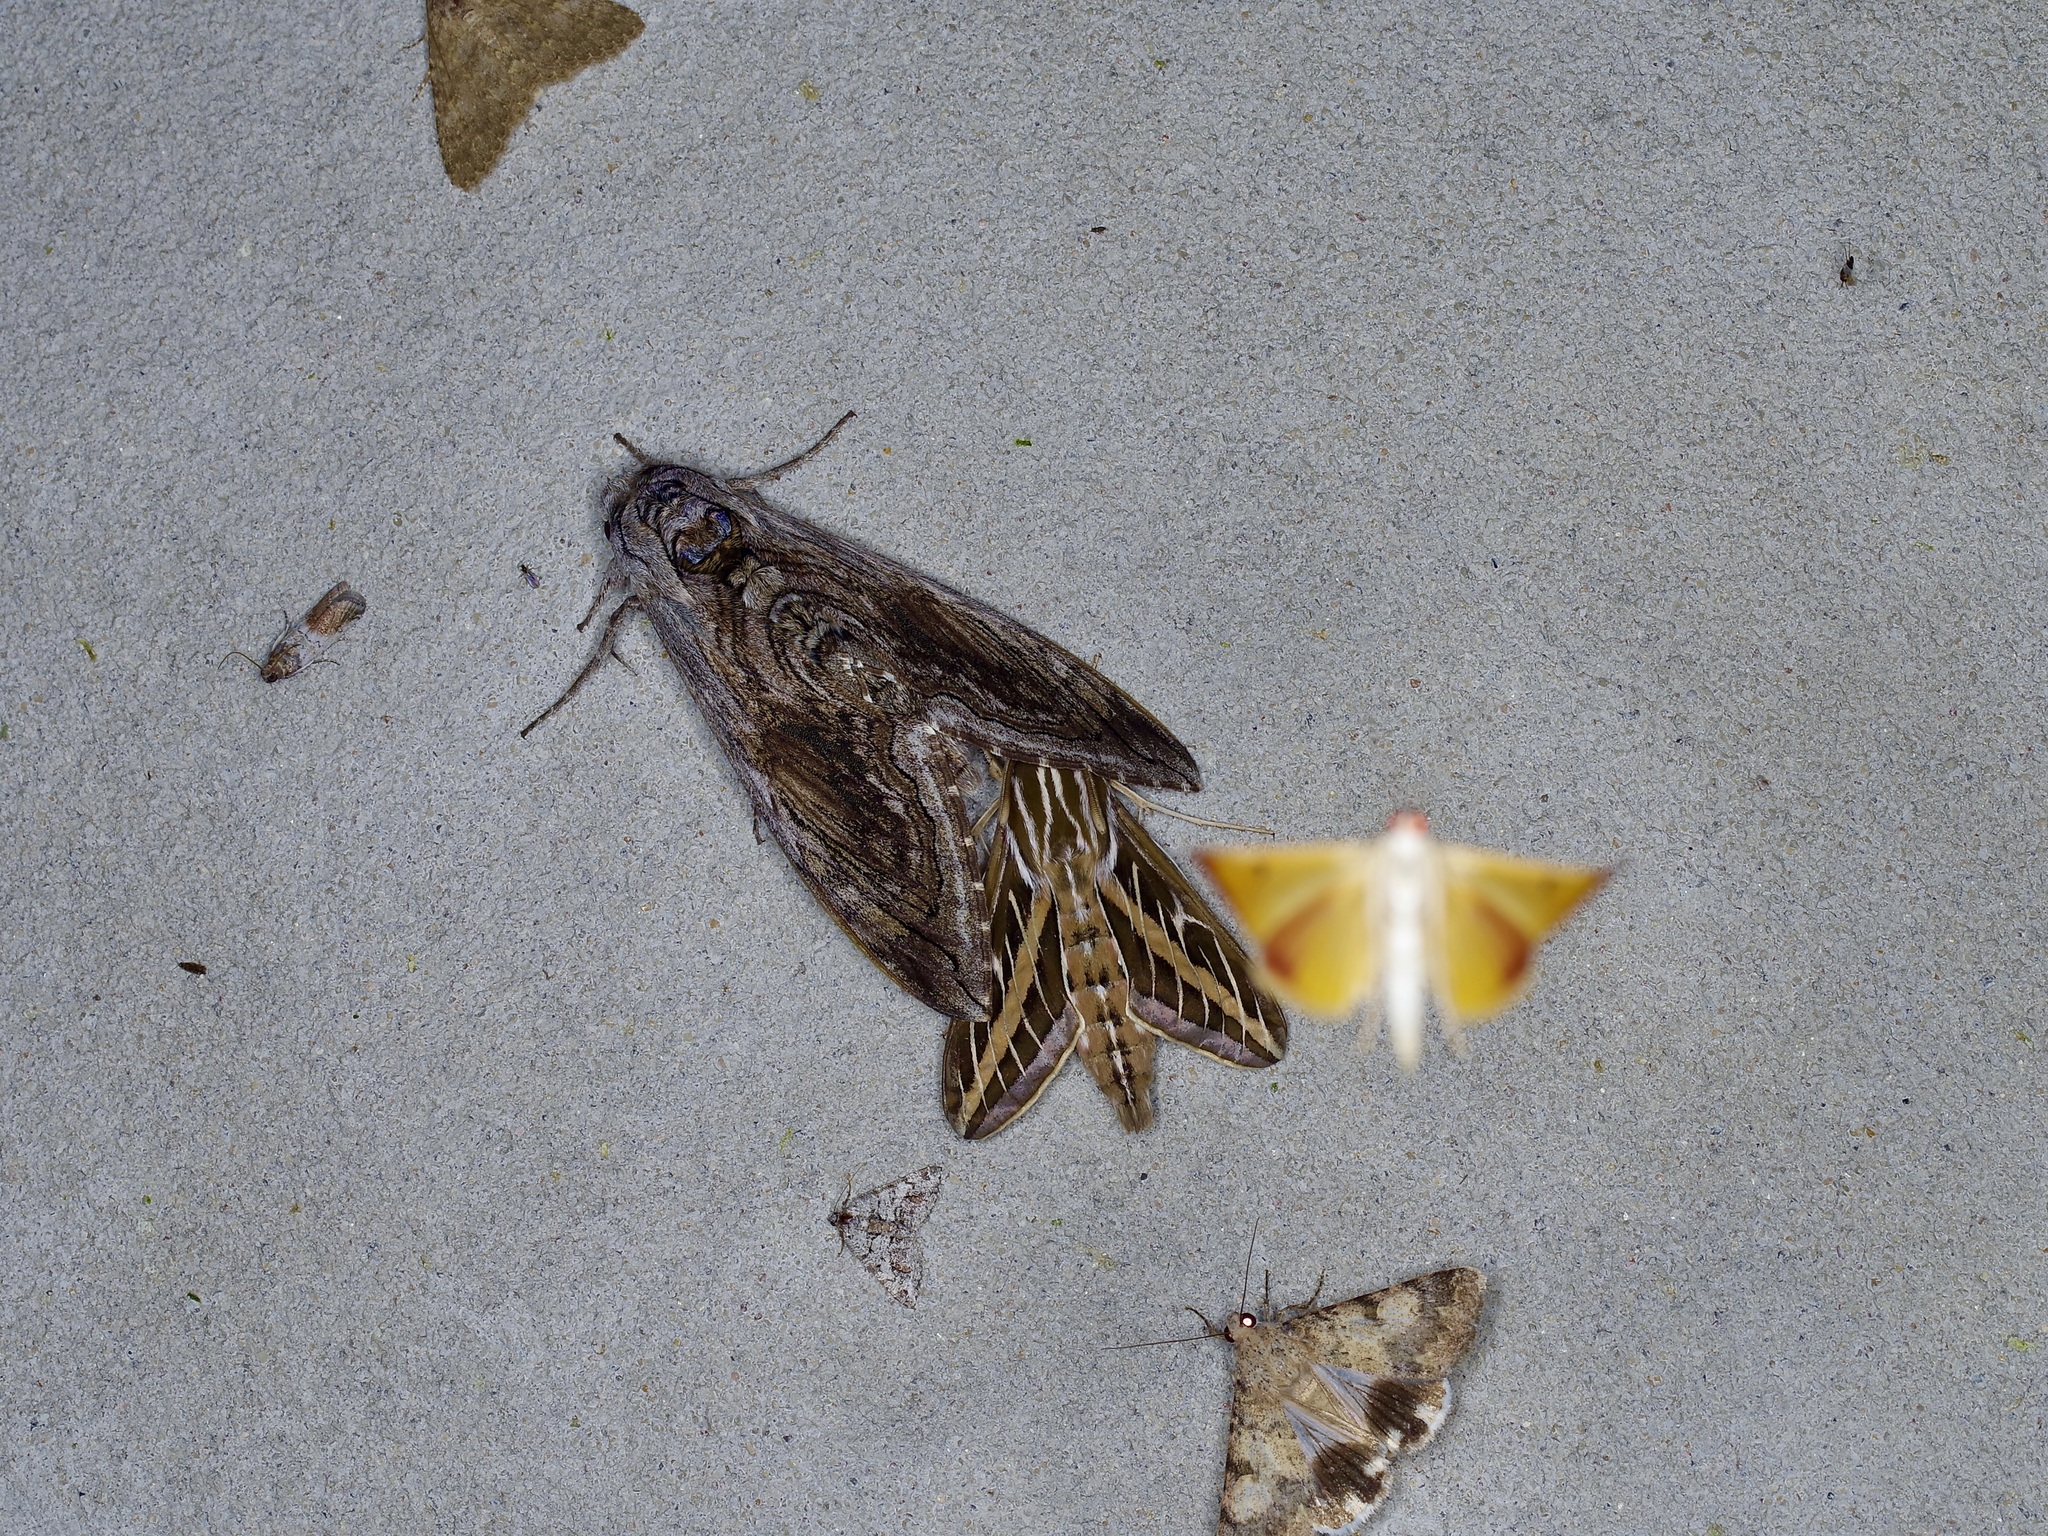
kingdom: Animalia
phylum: Arthropoda
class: Insecta
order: Lepidoptera
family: Sphingidae
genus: Hyles
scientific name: Hyles lineata
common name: White-lined sphinx
